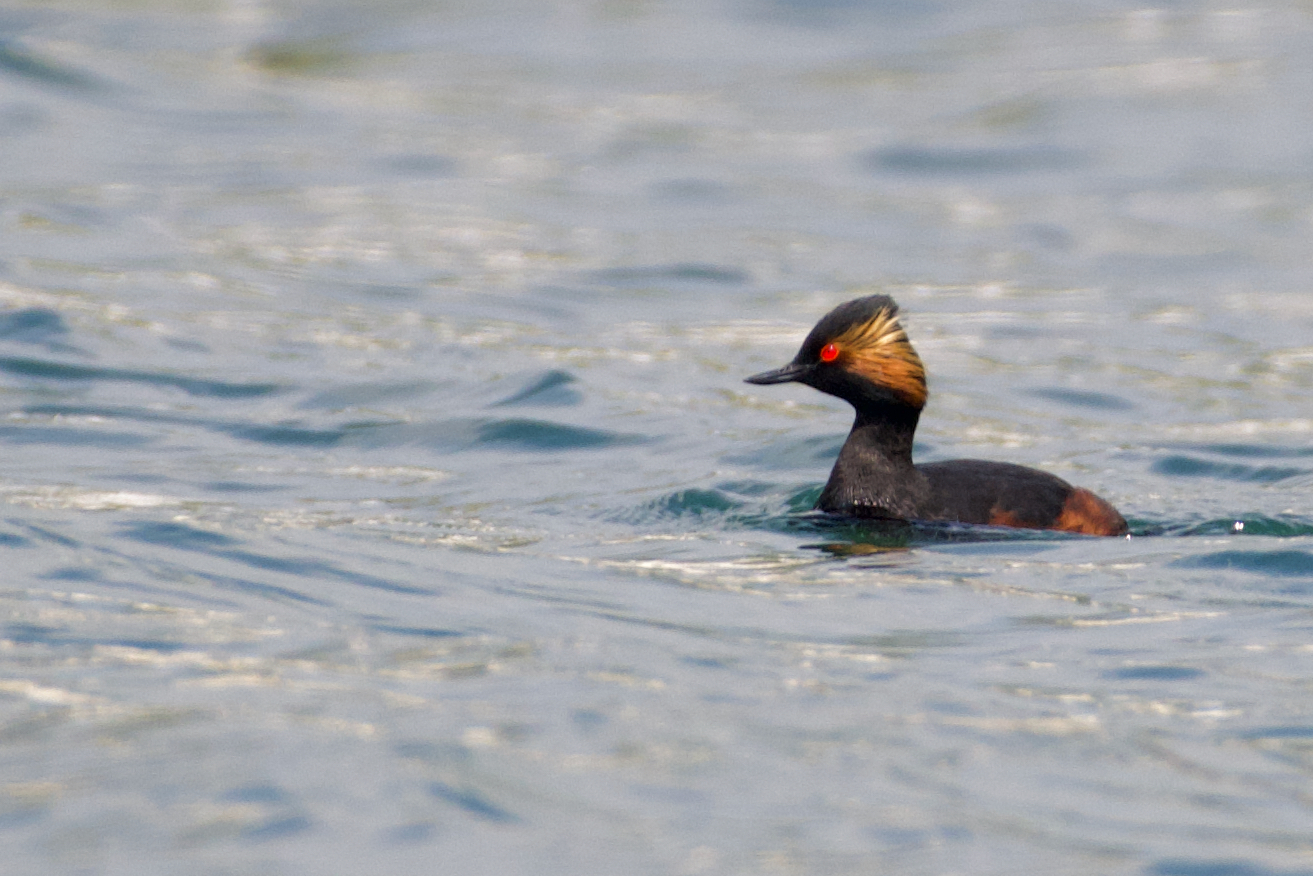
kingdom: Animalia
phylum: Chordata
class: Aves
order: Podicipediformes
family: Podicipedidae
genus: Podiceps
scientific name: Podiceps nigricollis
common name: Black-necked grebe
